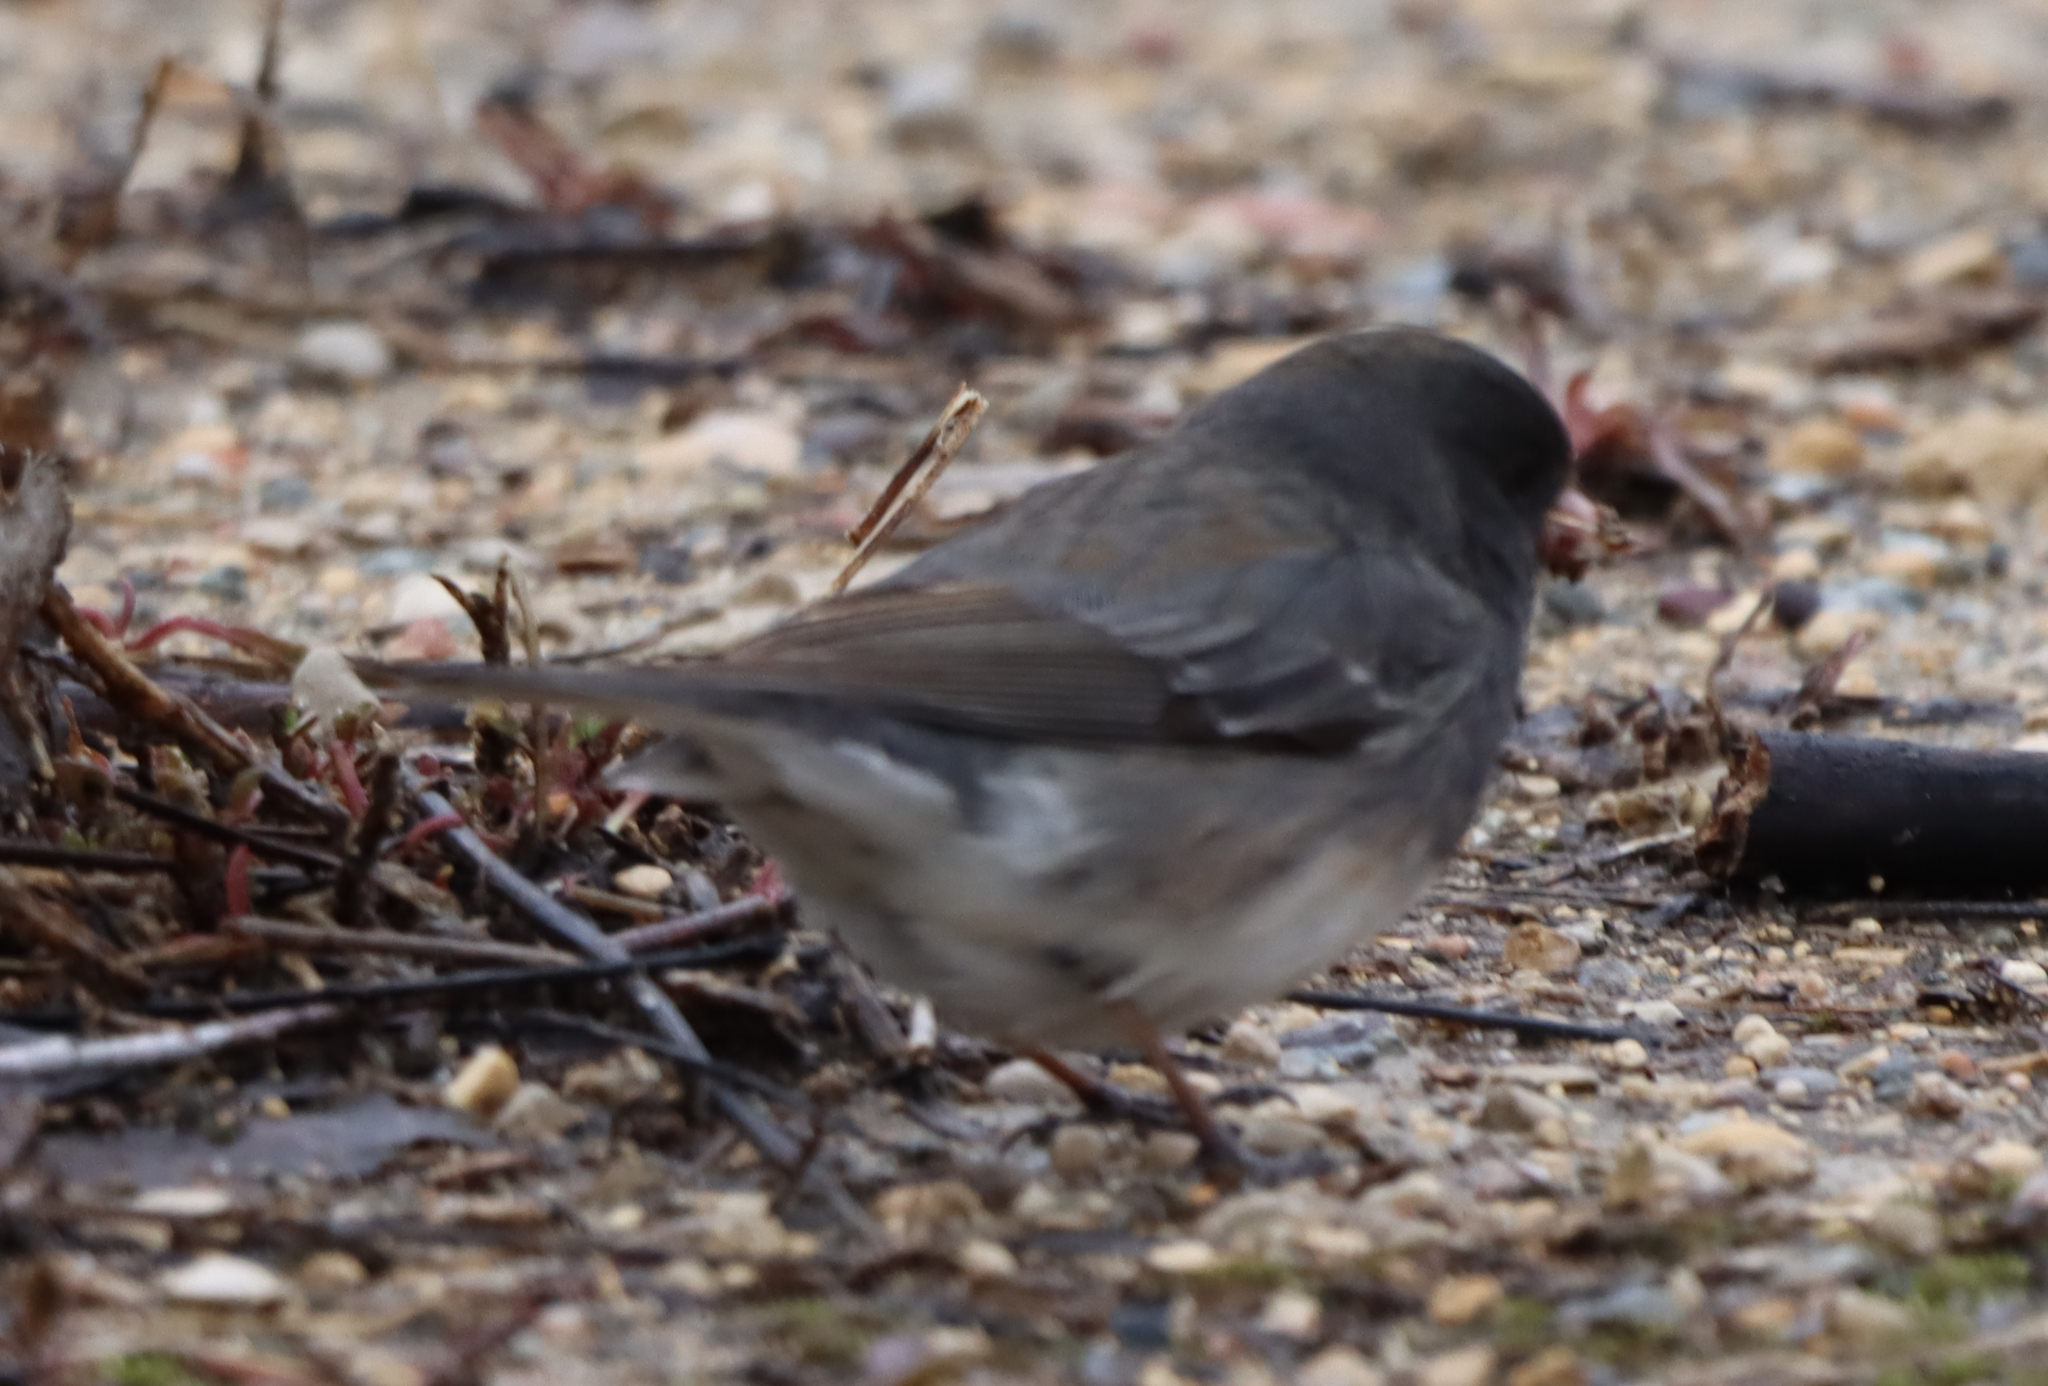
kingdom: Animalia
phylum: Chordata
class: Aves
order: Passeriformes
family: Passerellidae
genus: Junco
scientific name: Junco hyemalis
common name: Dark-eyed junco
